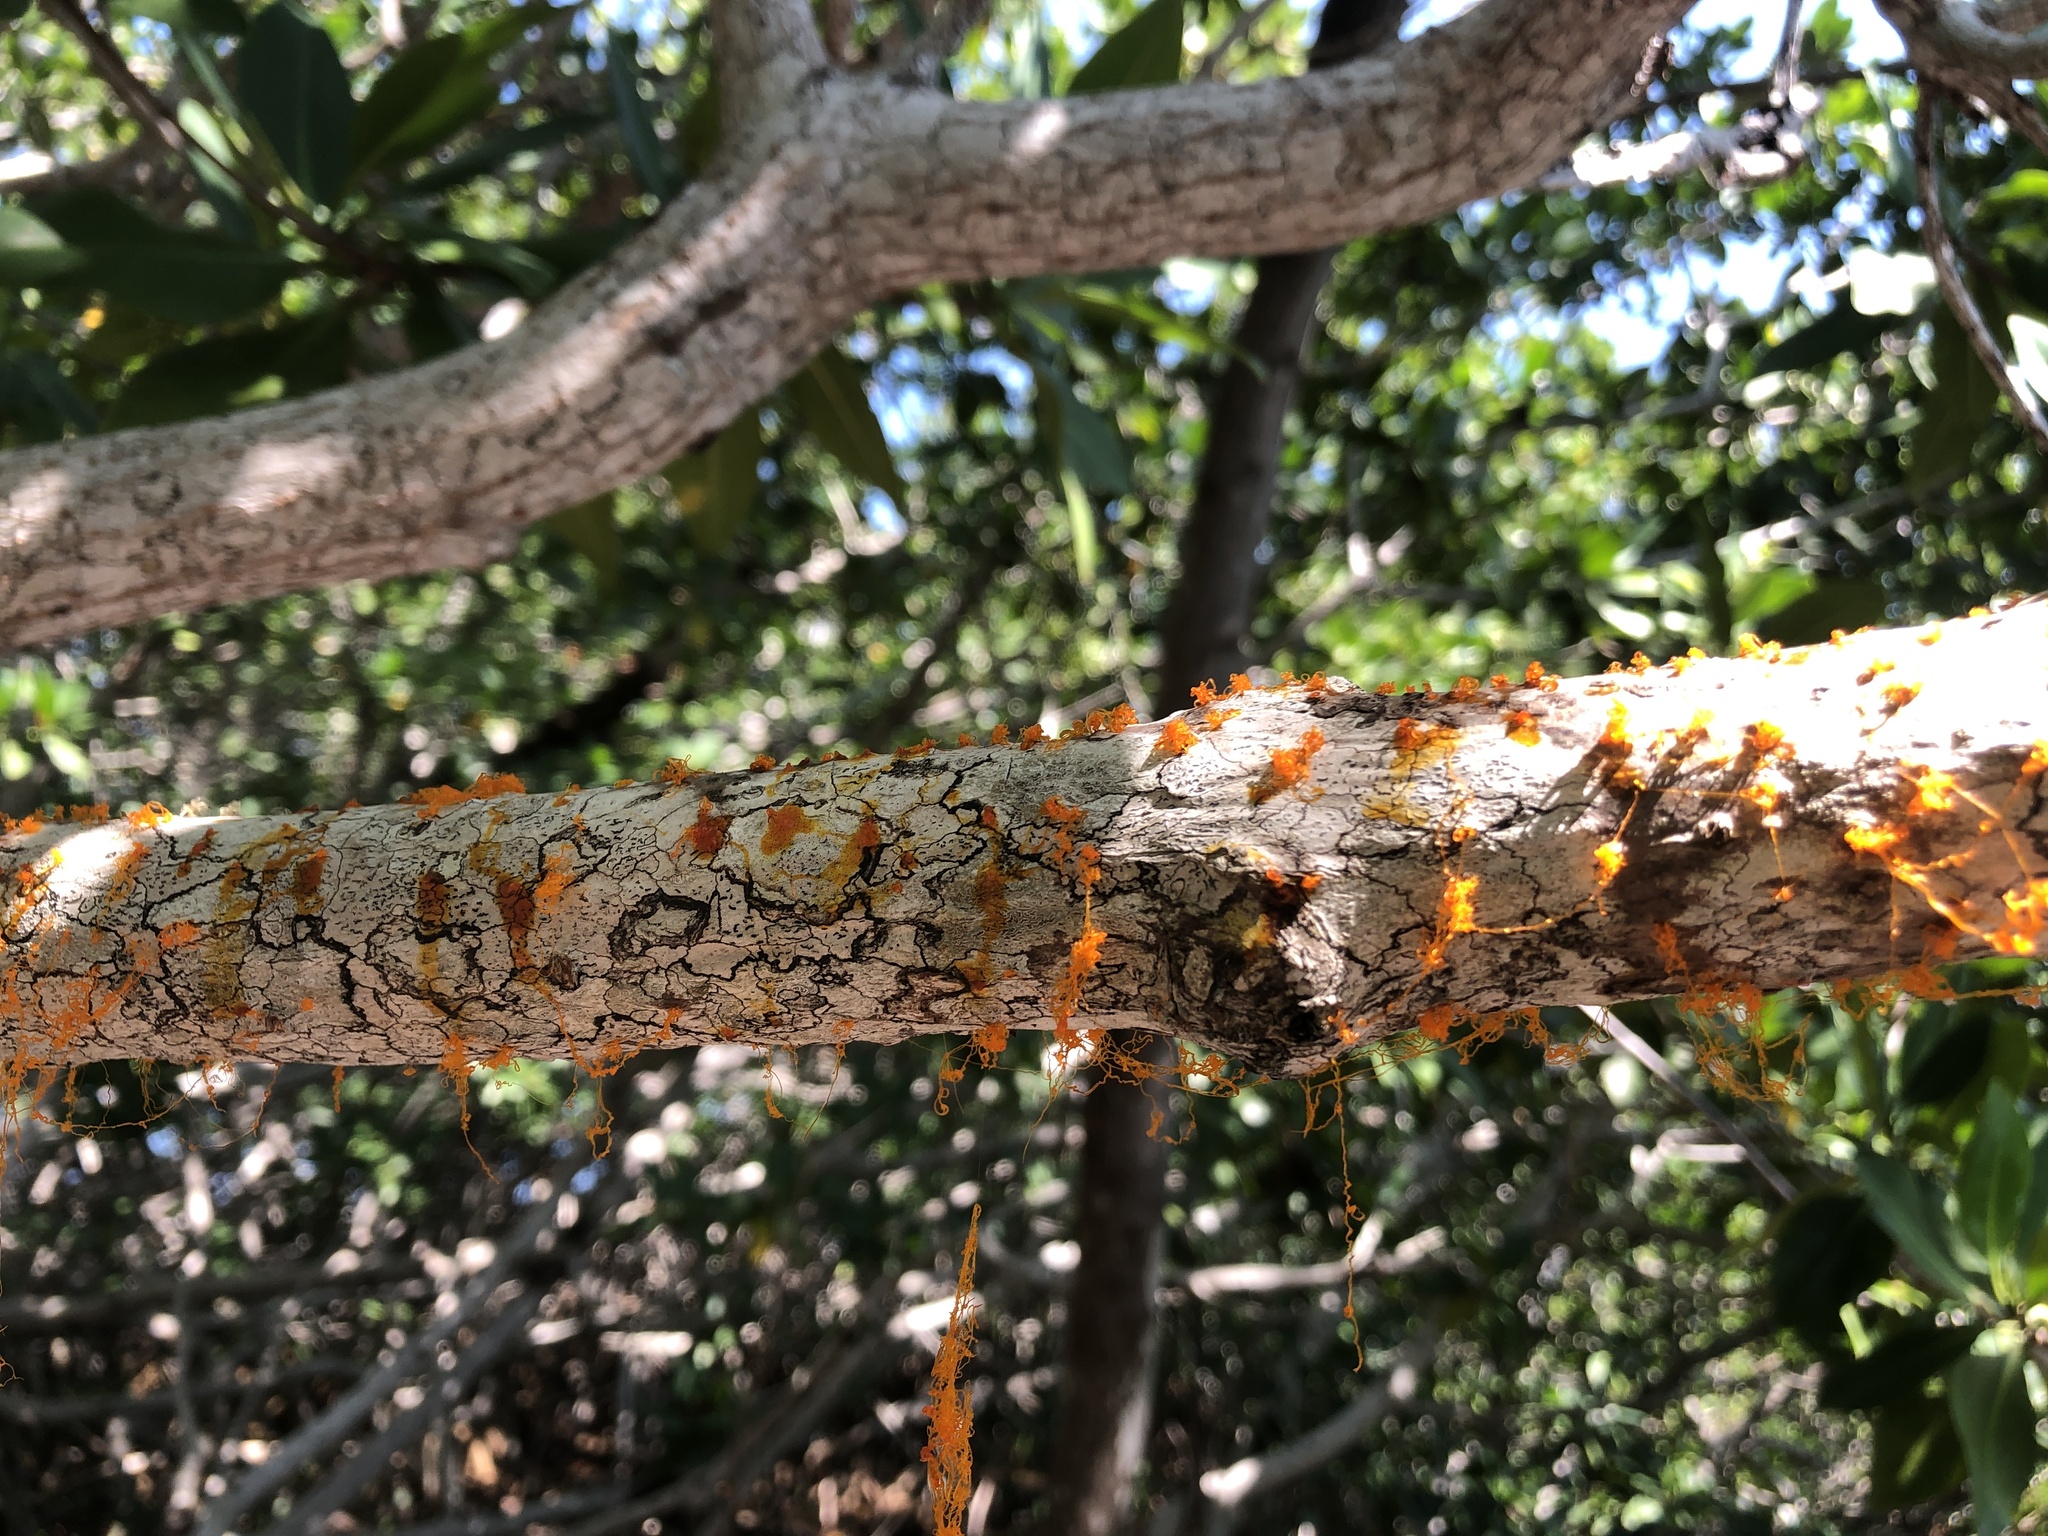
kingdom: Fungi
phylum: Ascomycota
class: Sordariomycetes
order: Diaporthales
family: Valsaceae
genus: Cytospora
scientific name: Cytospora rhizophorae
